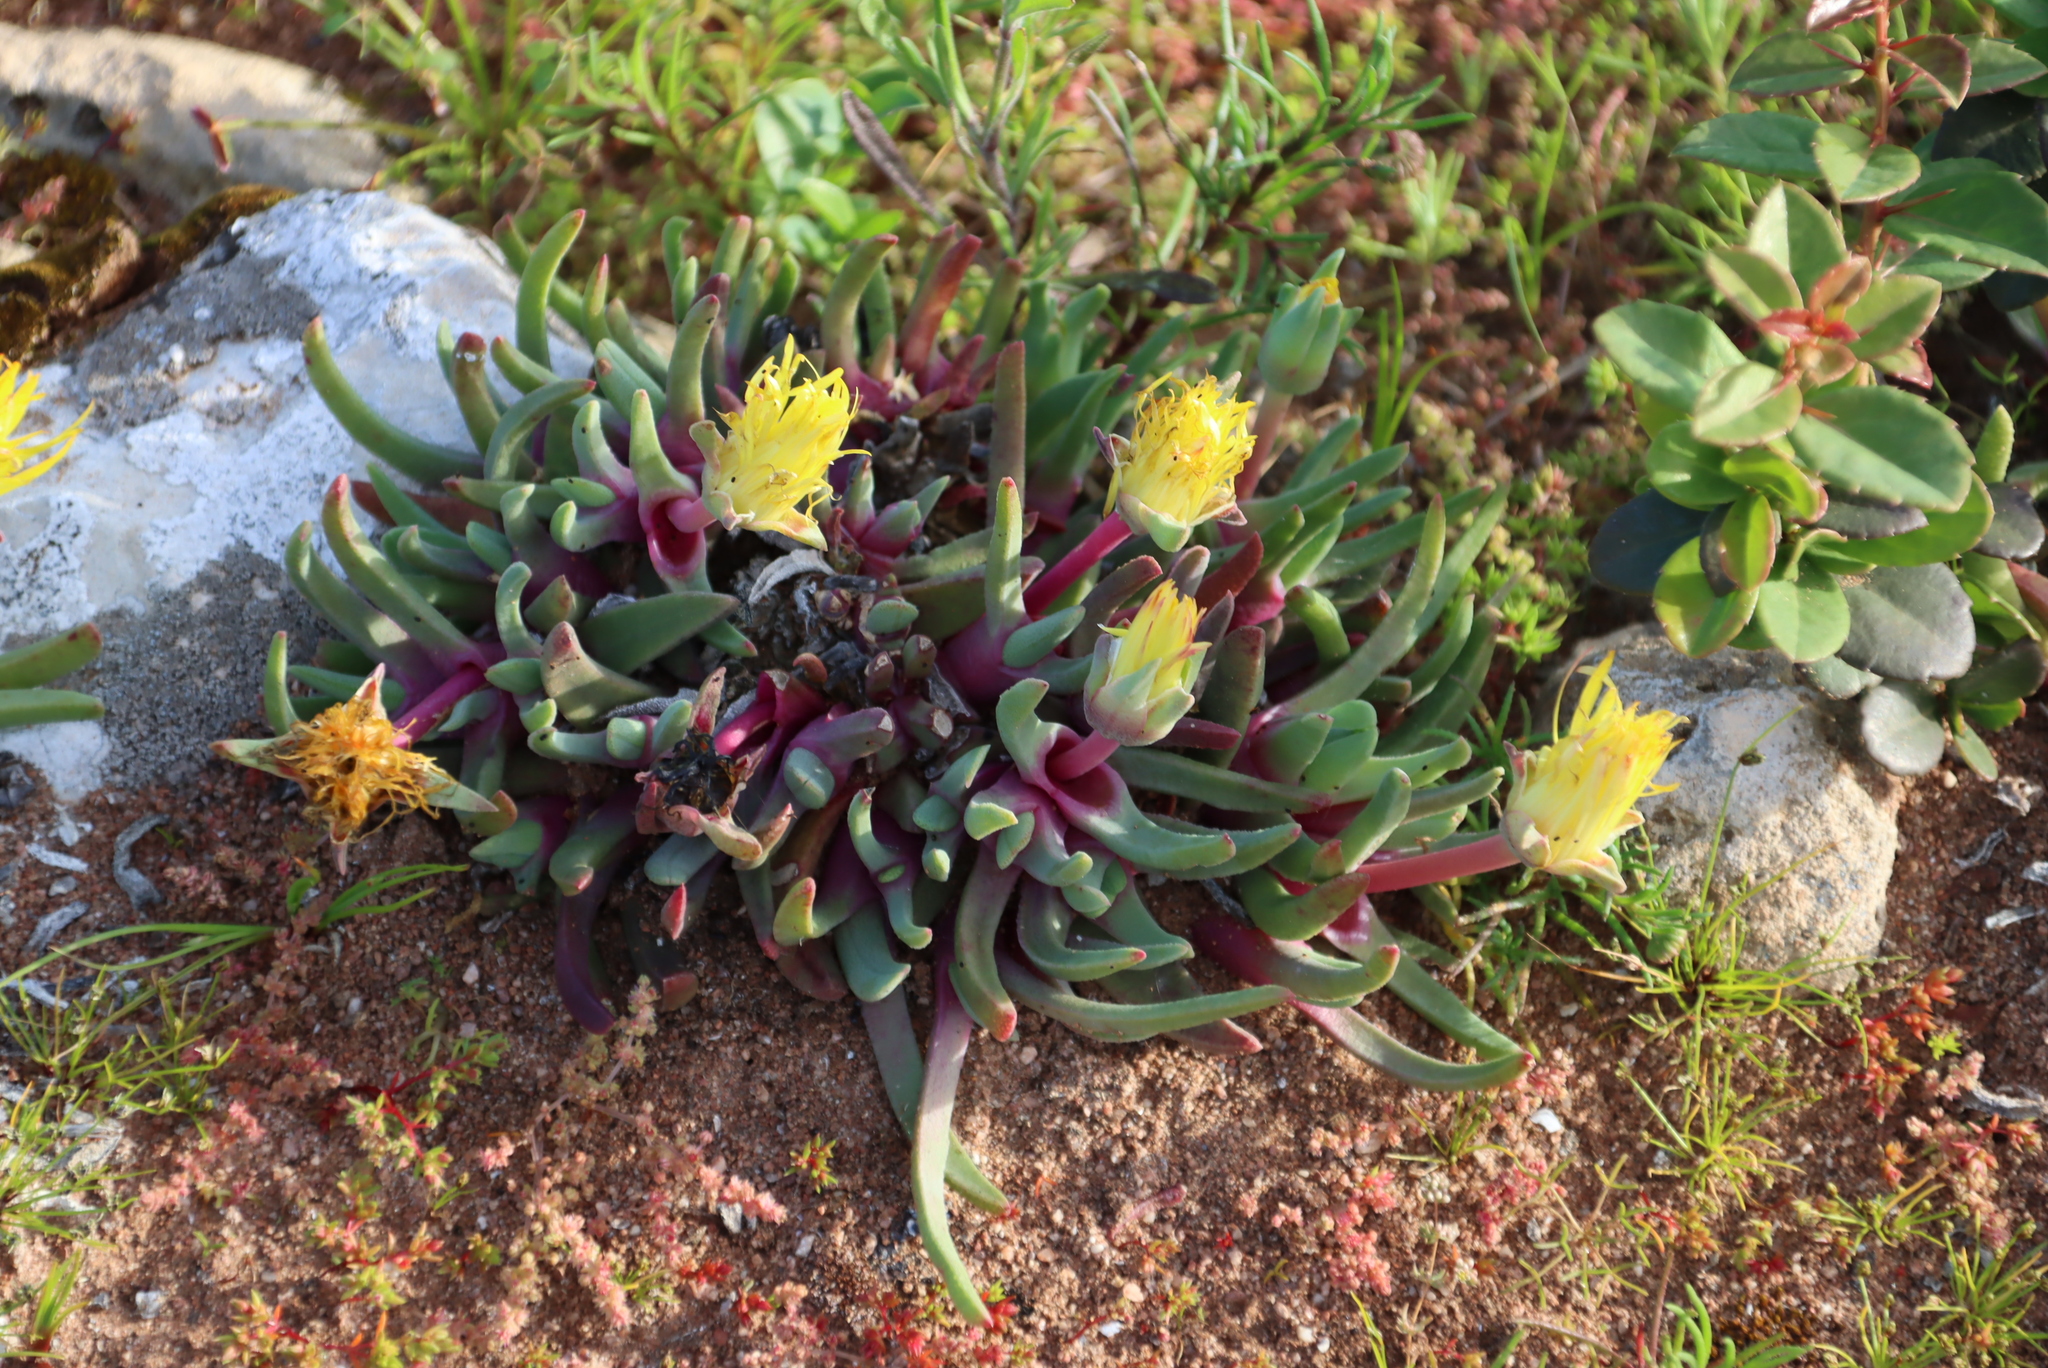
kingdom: Plantae
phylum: Tracheophyta
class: Magnoliopsida
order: Caryophyllales
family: Aizoaceae
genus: Cheiridopsis
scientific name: Cheiridopsis rostrata
